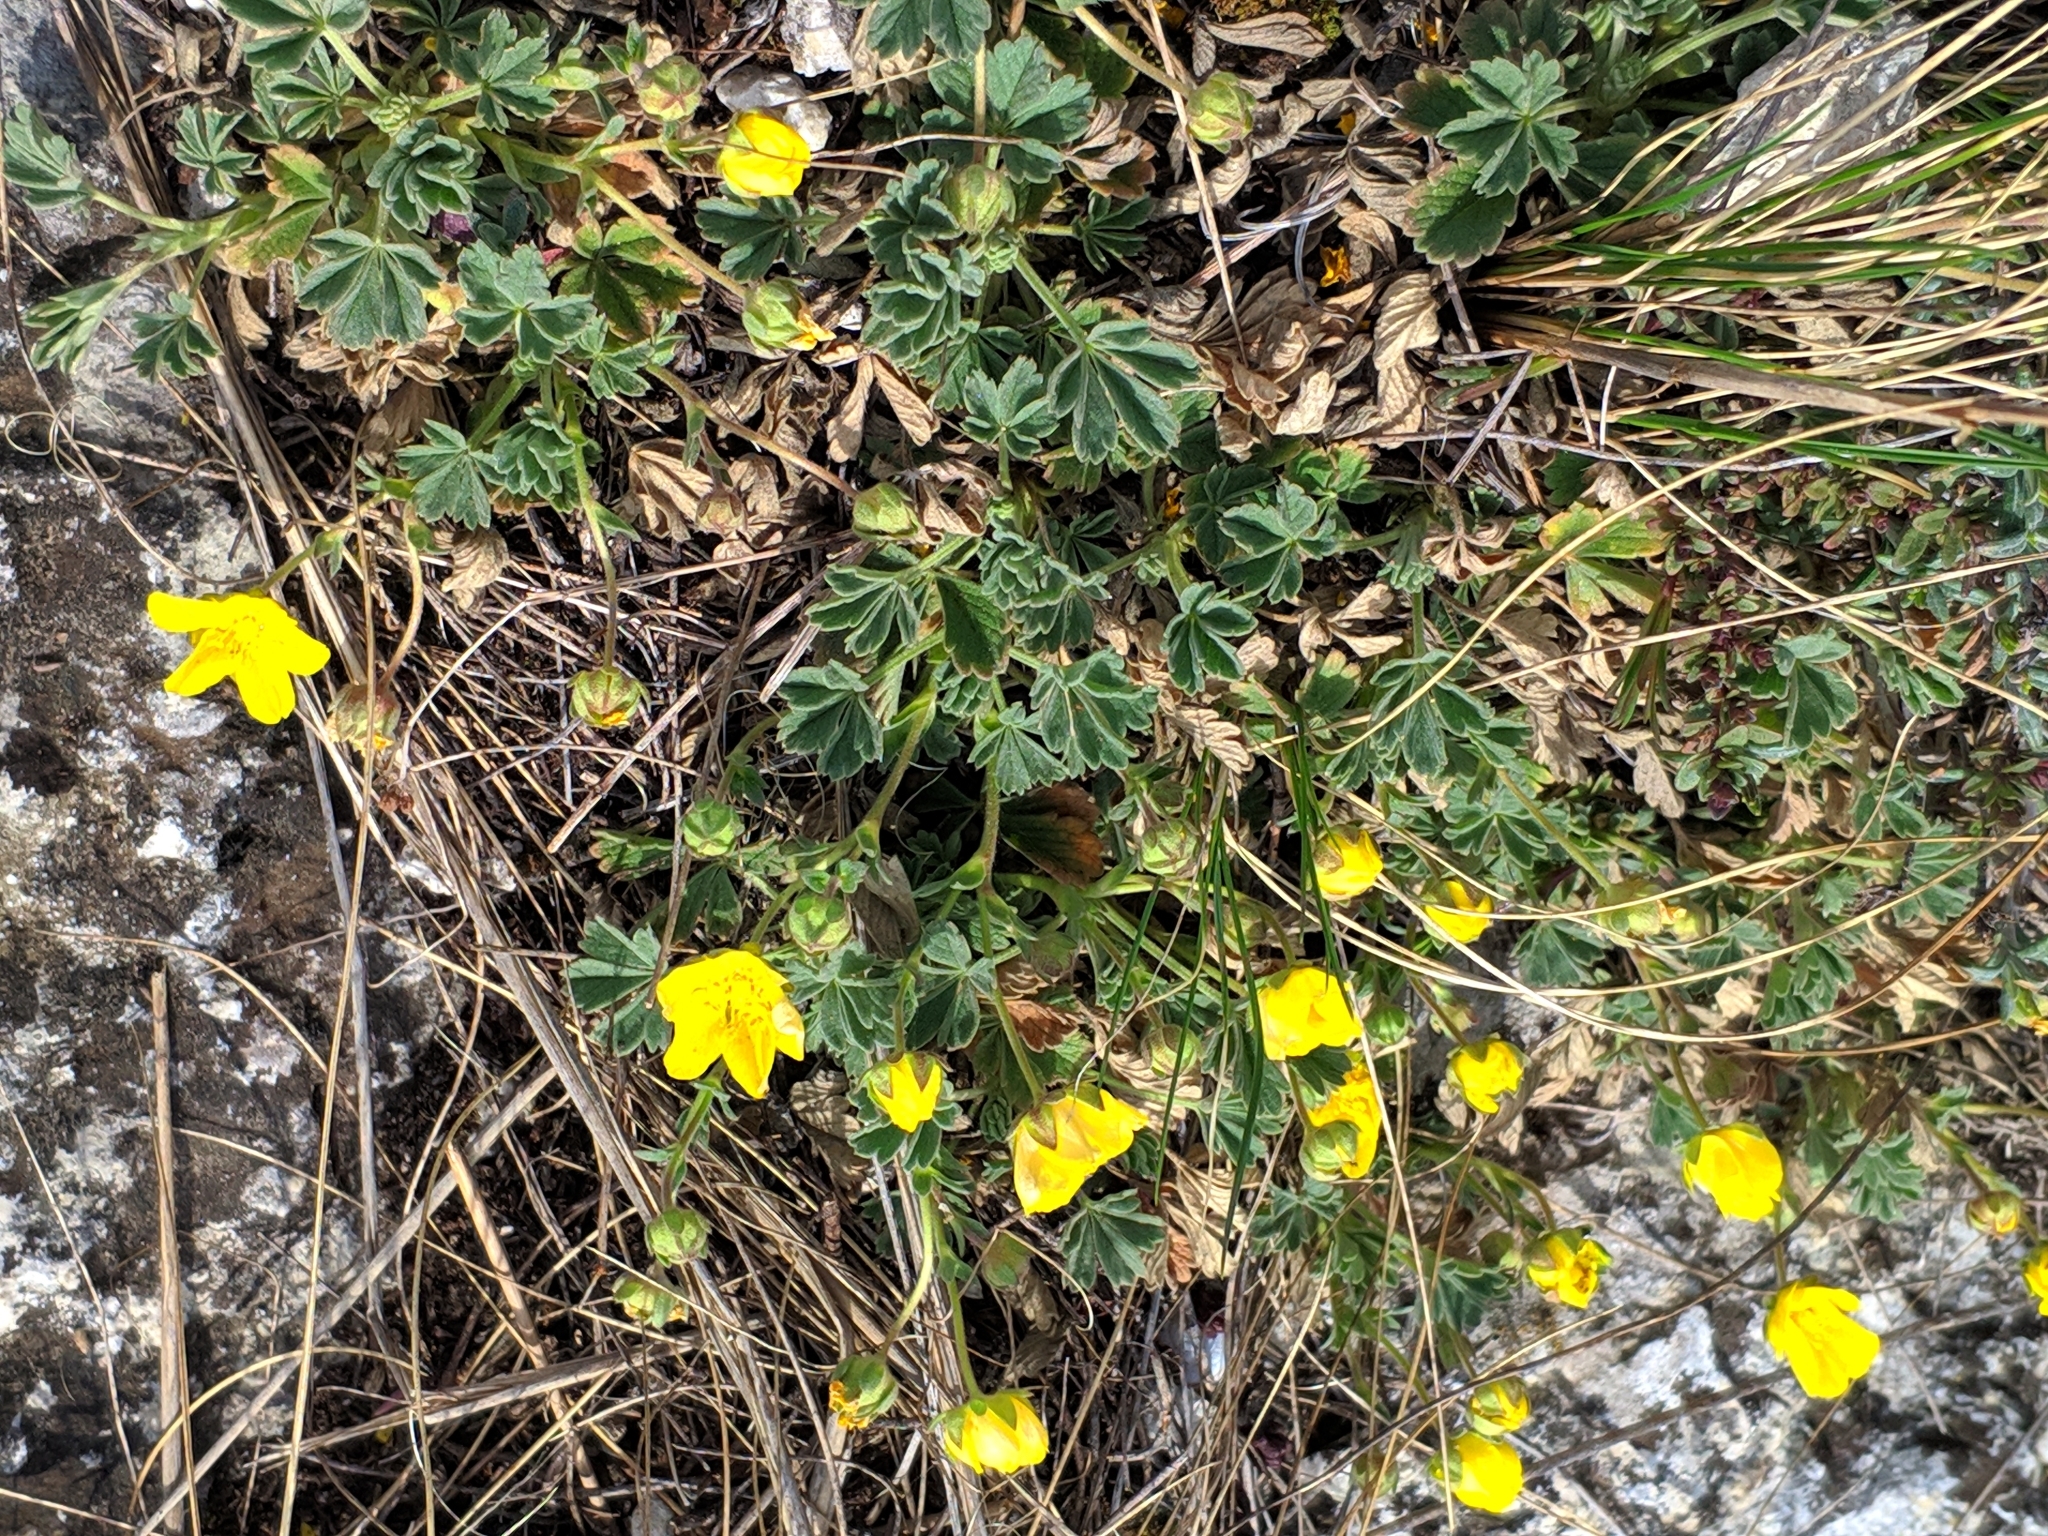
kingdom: Plantae
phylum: Tracheophyta
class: Magnoliopsida
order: Rosales
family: Rosaceae
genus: Potentilla
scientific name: Potentilla incana
